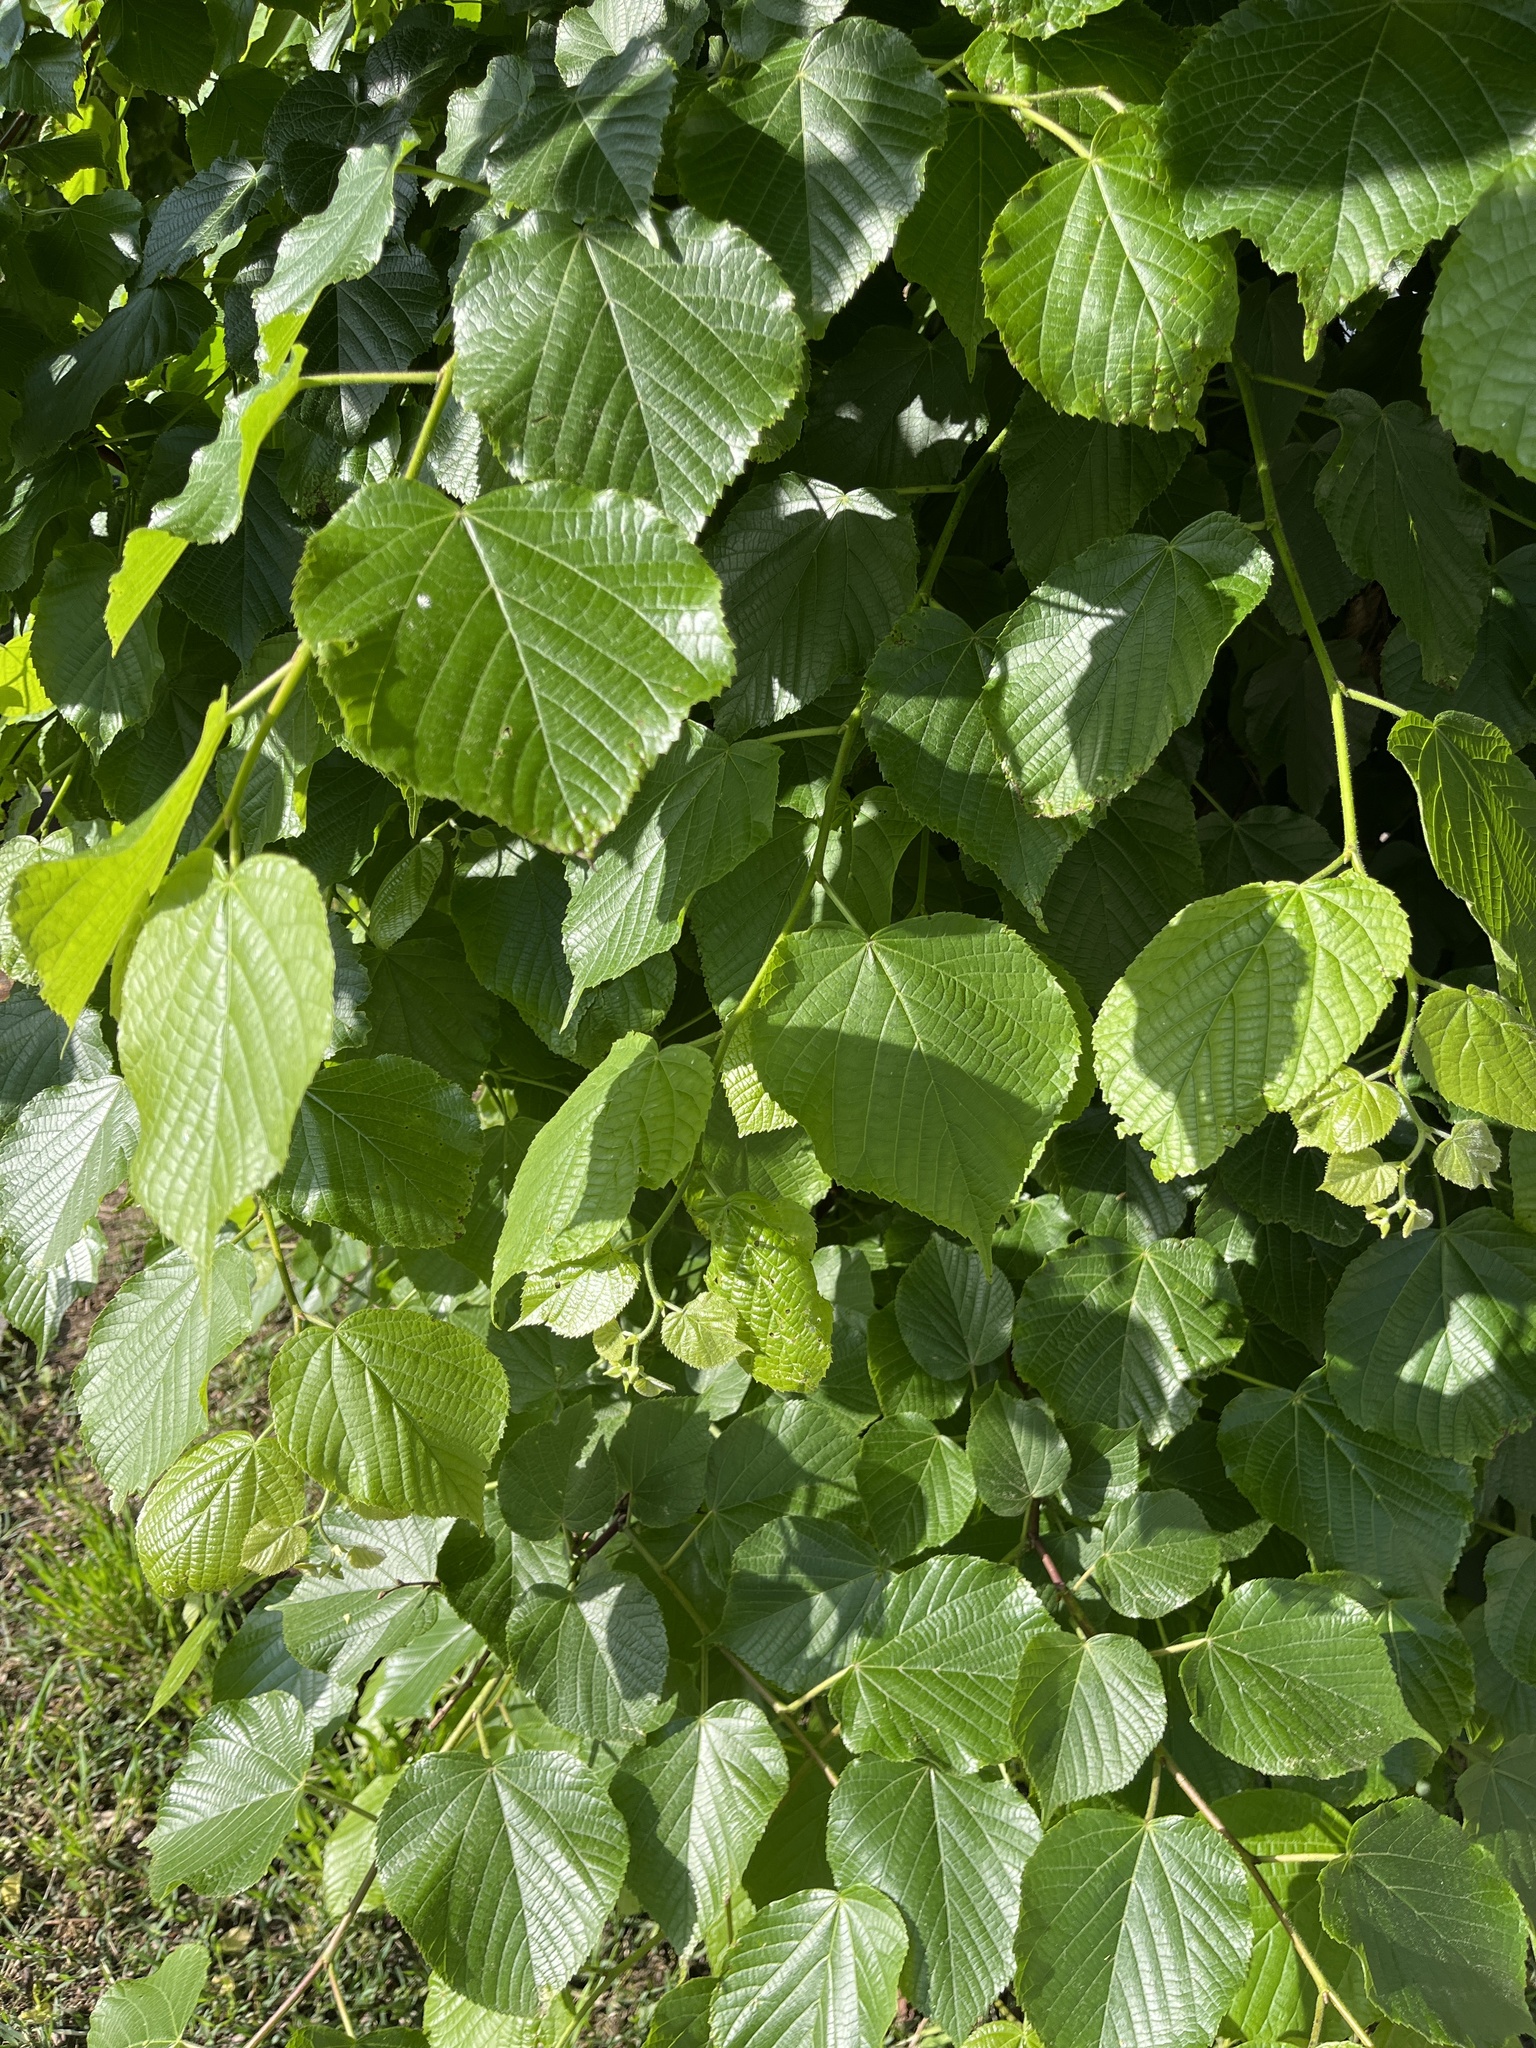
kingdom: Plantae
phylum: Tracheophyta
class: Magnoliopsida
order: Malvales
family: Malvaceae
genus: Tilia
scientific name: Tilia platyphyllos
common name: Large-leaved lime
